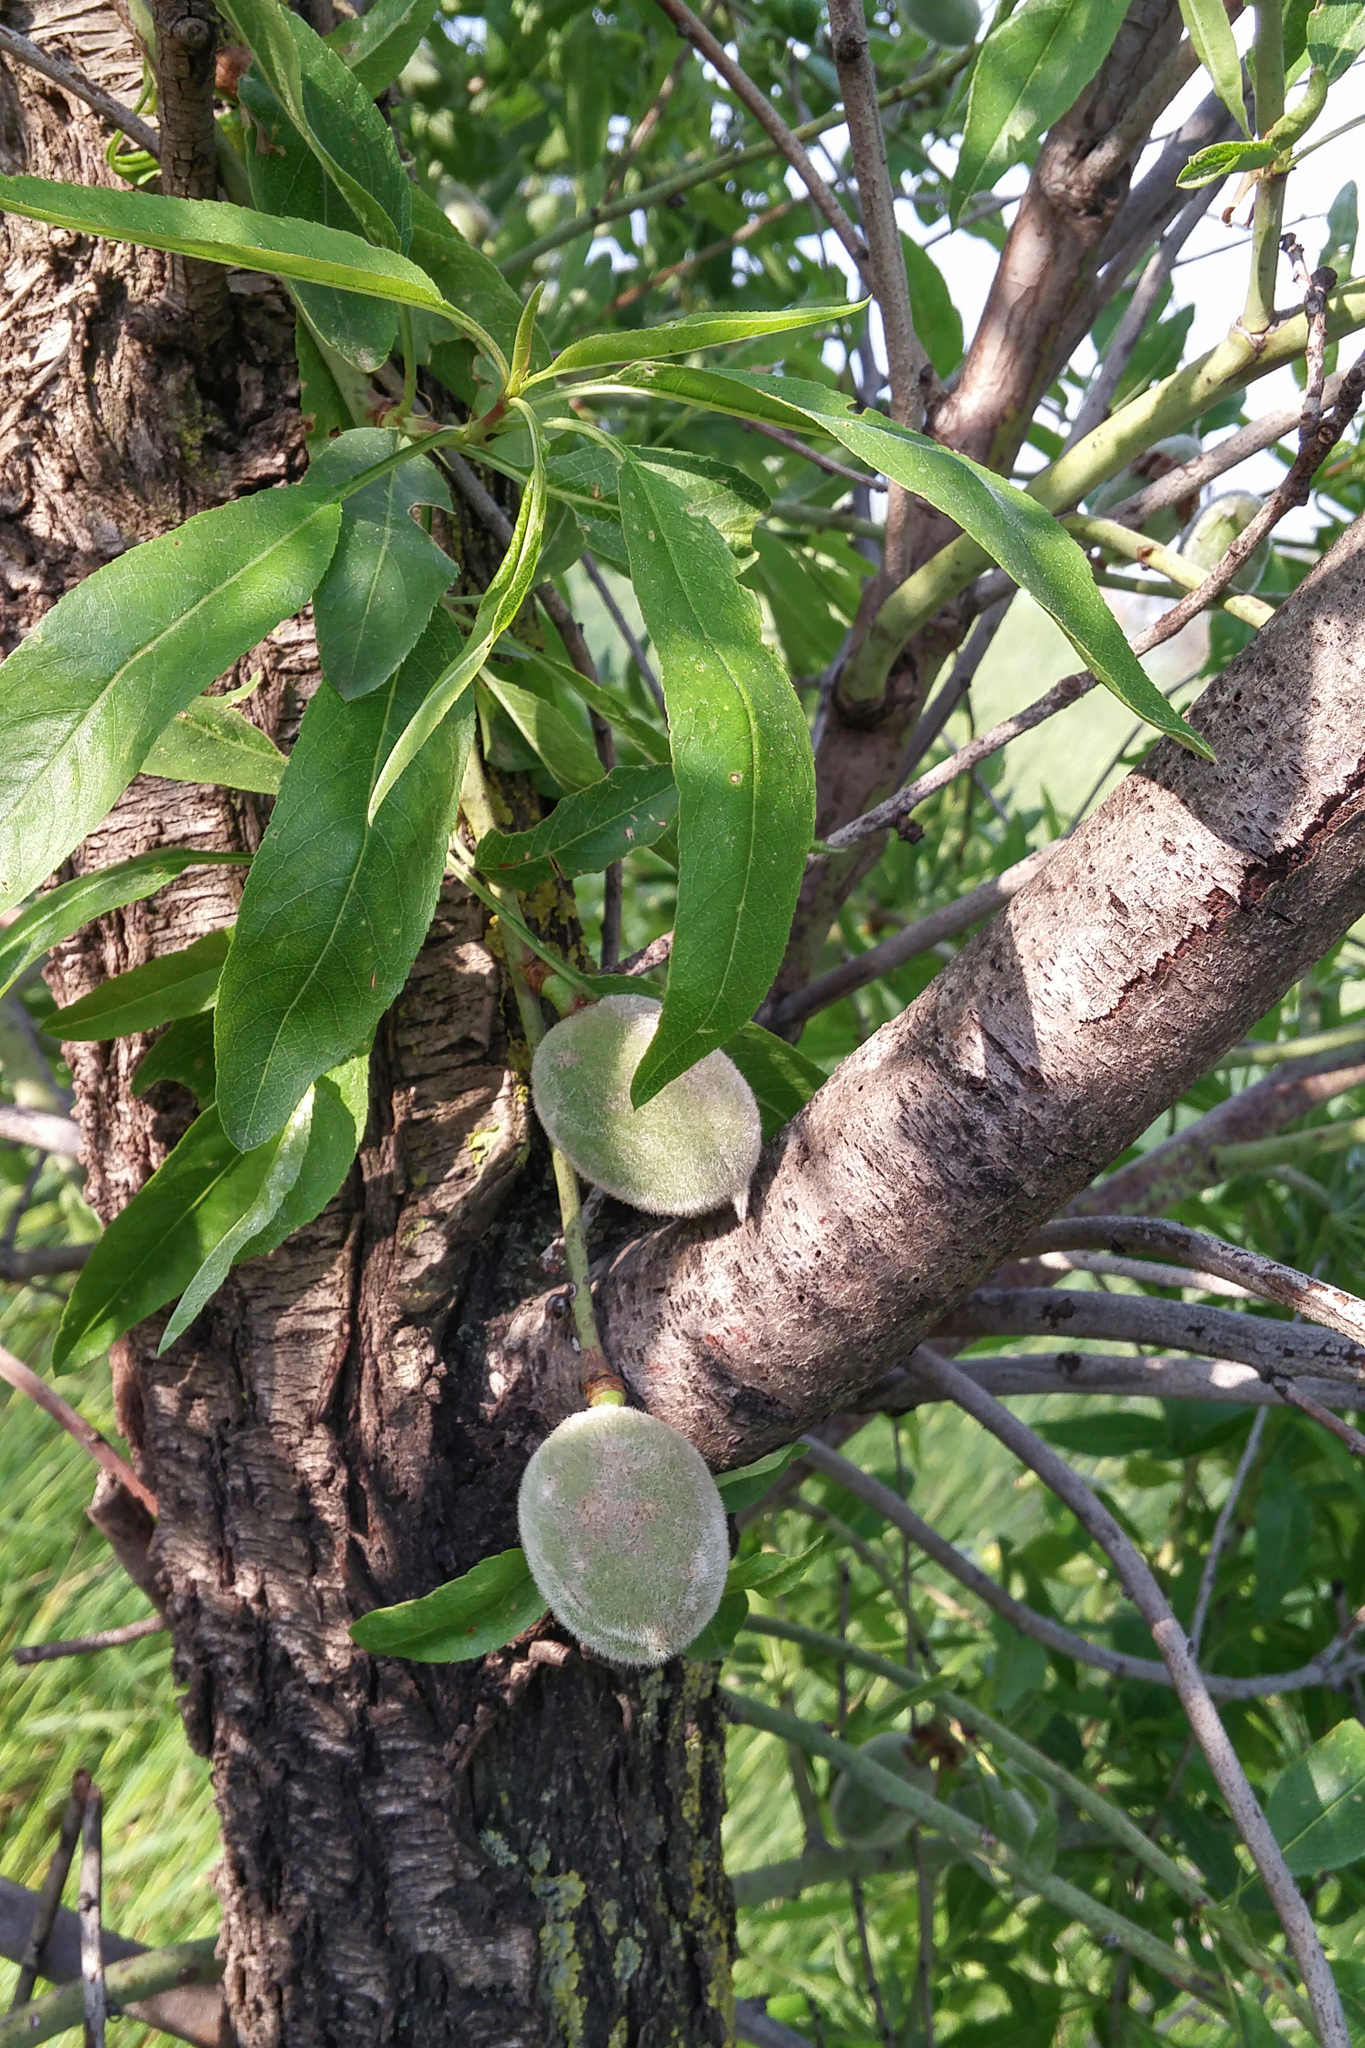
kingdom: Plantae
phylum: Tracheophyta
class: Magnoliopsida
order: Rosales
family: Rosaceae
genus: Prunus
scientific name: Prunus amygdalus
